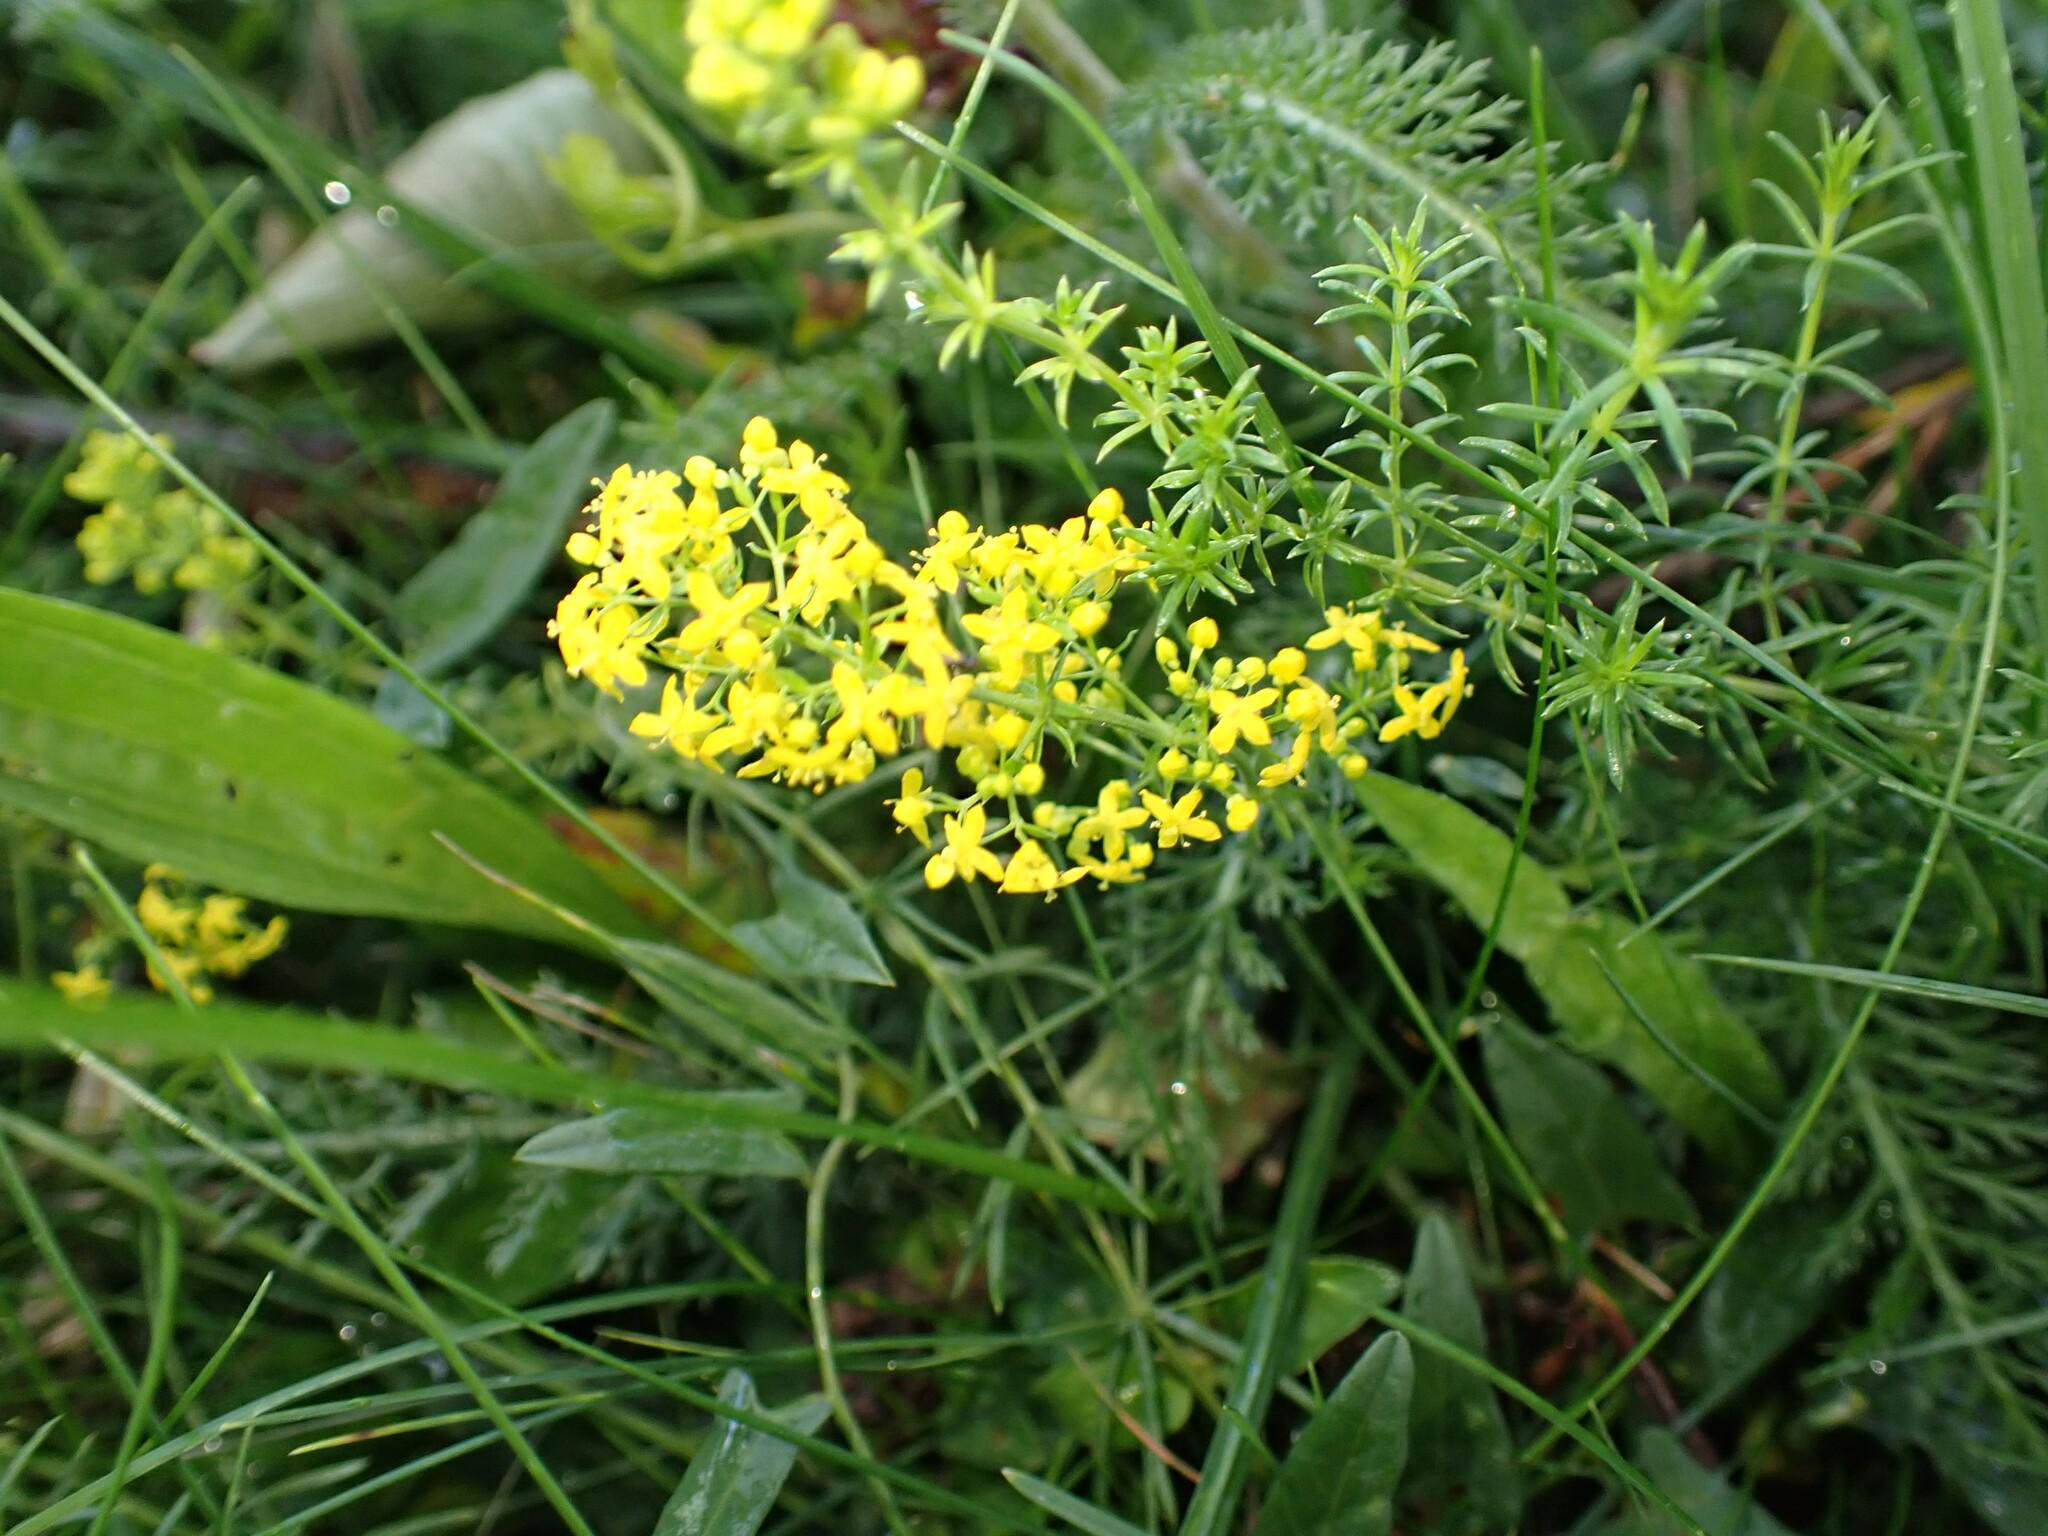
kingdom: Plantae
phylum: Tracheophyta
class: Magnoliopsida
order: Gentianales
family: Rubiaceae
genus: Galium
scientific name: Galium verum
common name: Lady's bedstraw
